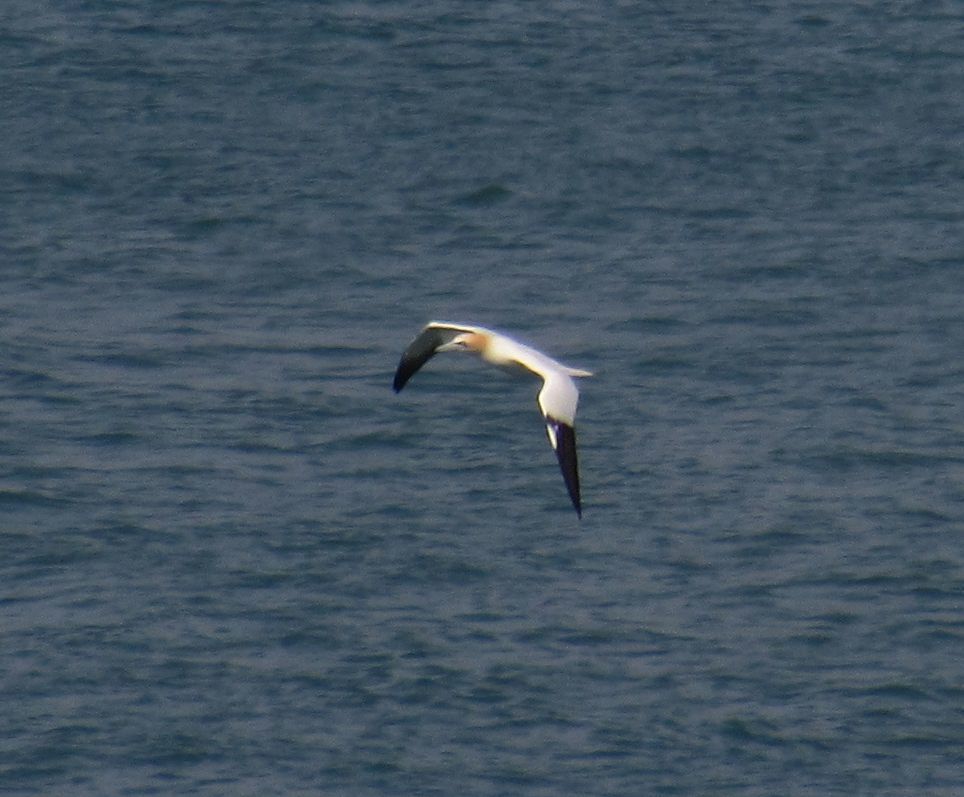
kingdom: Animalia
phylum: Chordata
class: Aves
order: Suliformes
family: Sulidae
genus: Morus
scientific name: Morus bassanus
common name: Northern gannet
